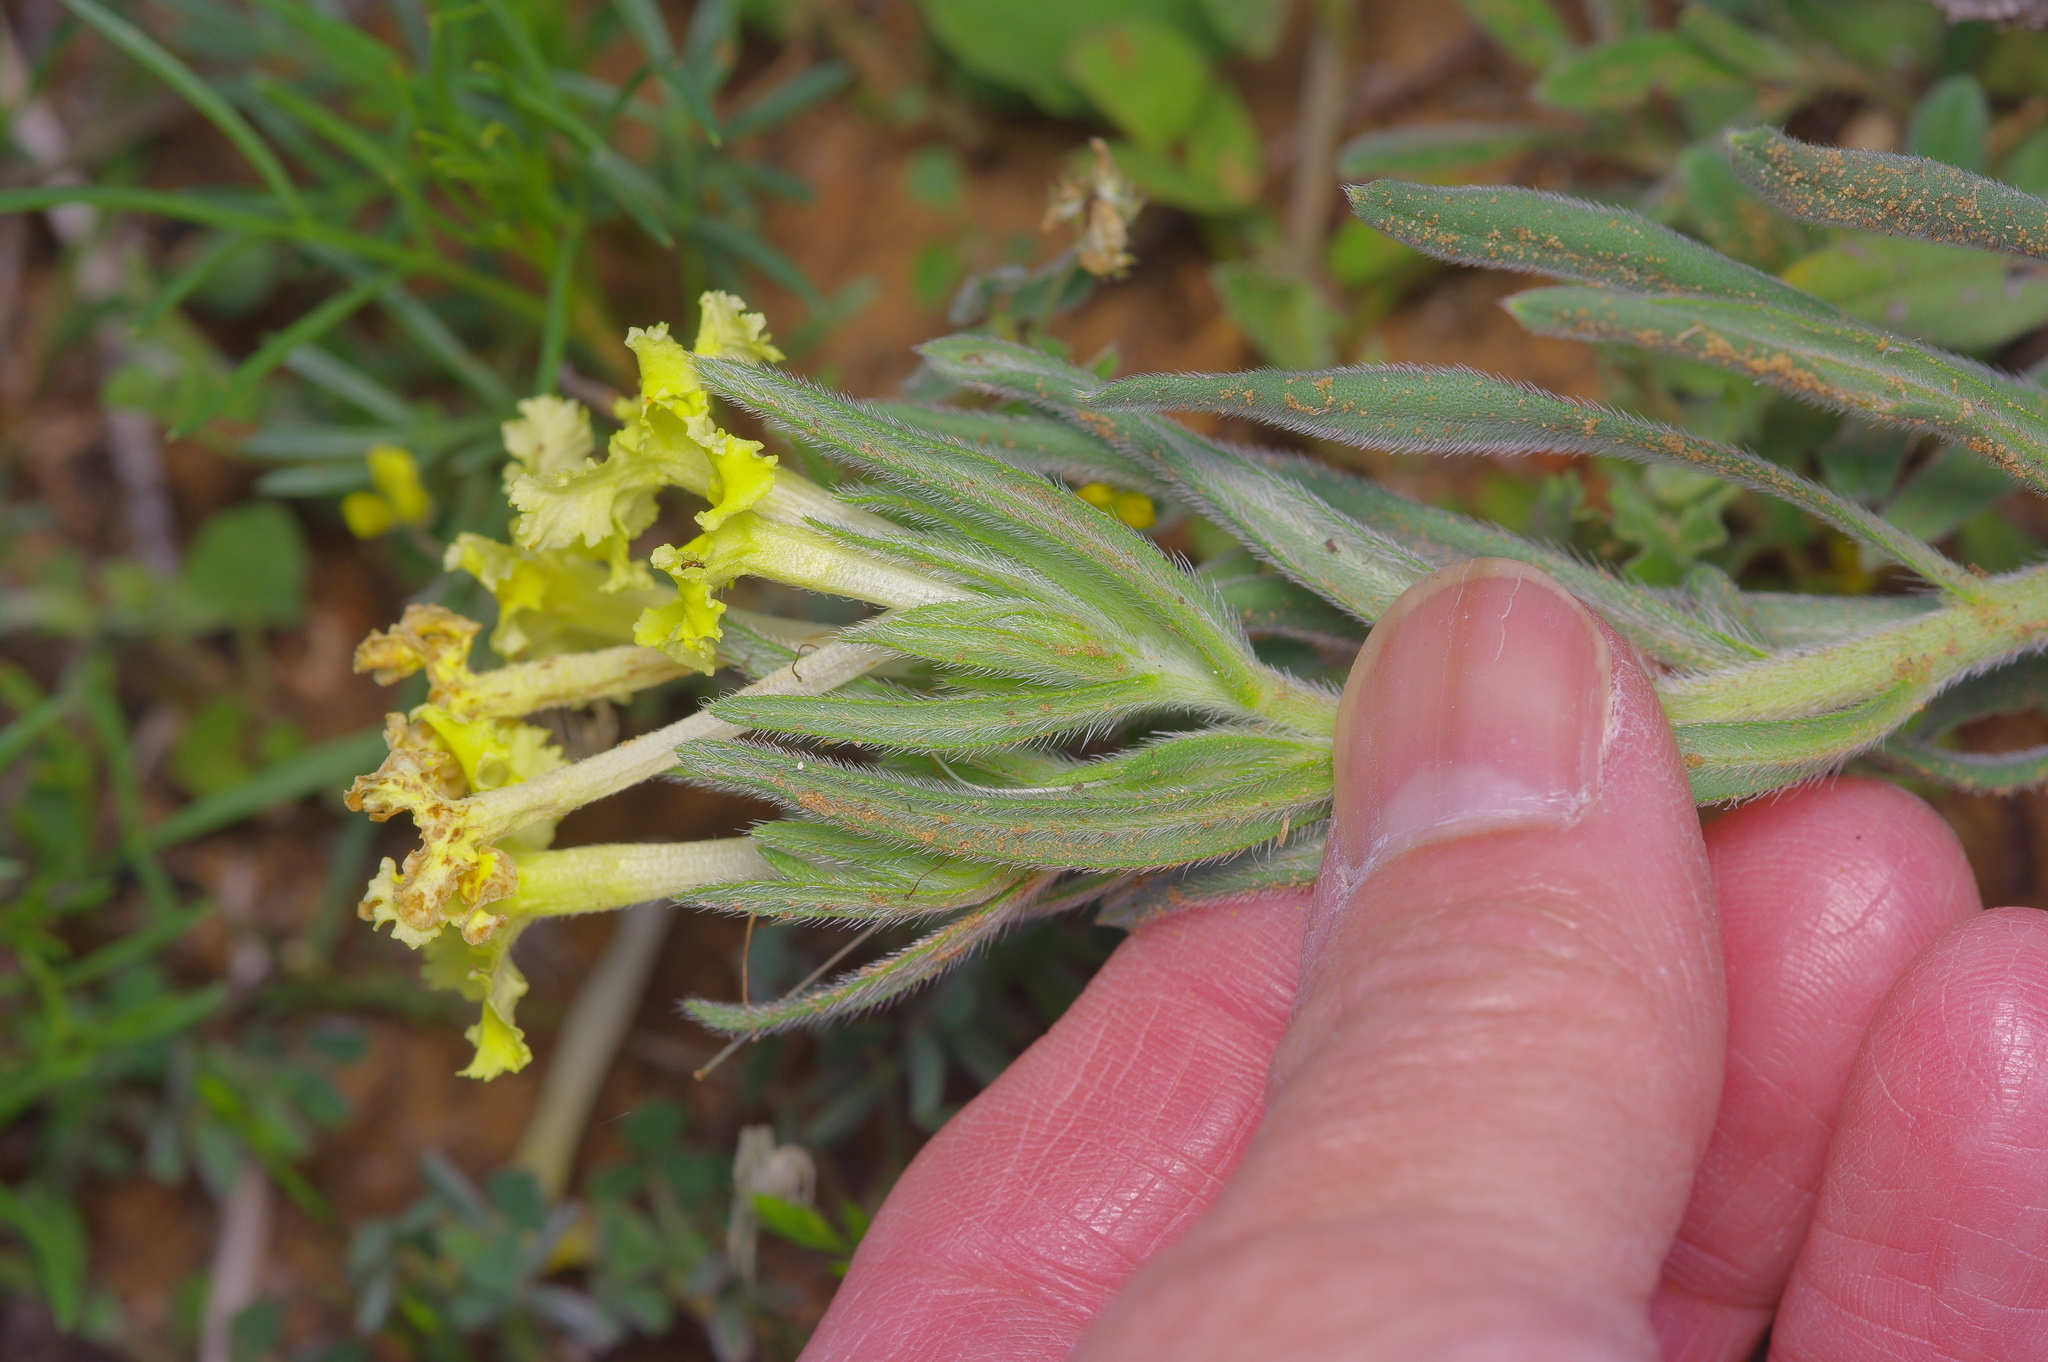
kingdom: Plantae
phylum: Tracheophyta
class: Magnoliopsida
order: Boraginales
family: Boraginaceae
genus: Lithospermum
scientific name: Lithospermum incisum
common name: Fringed gromwell
